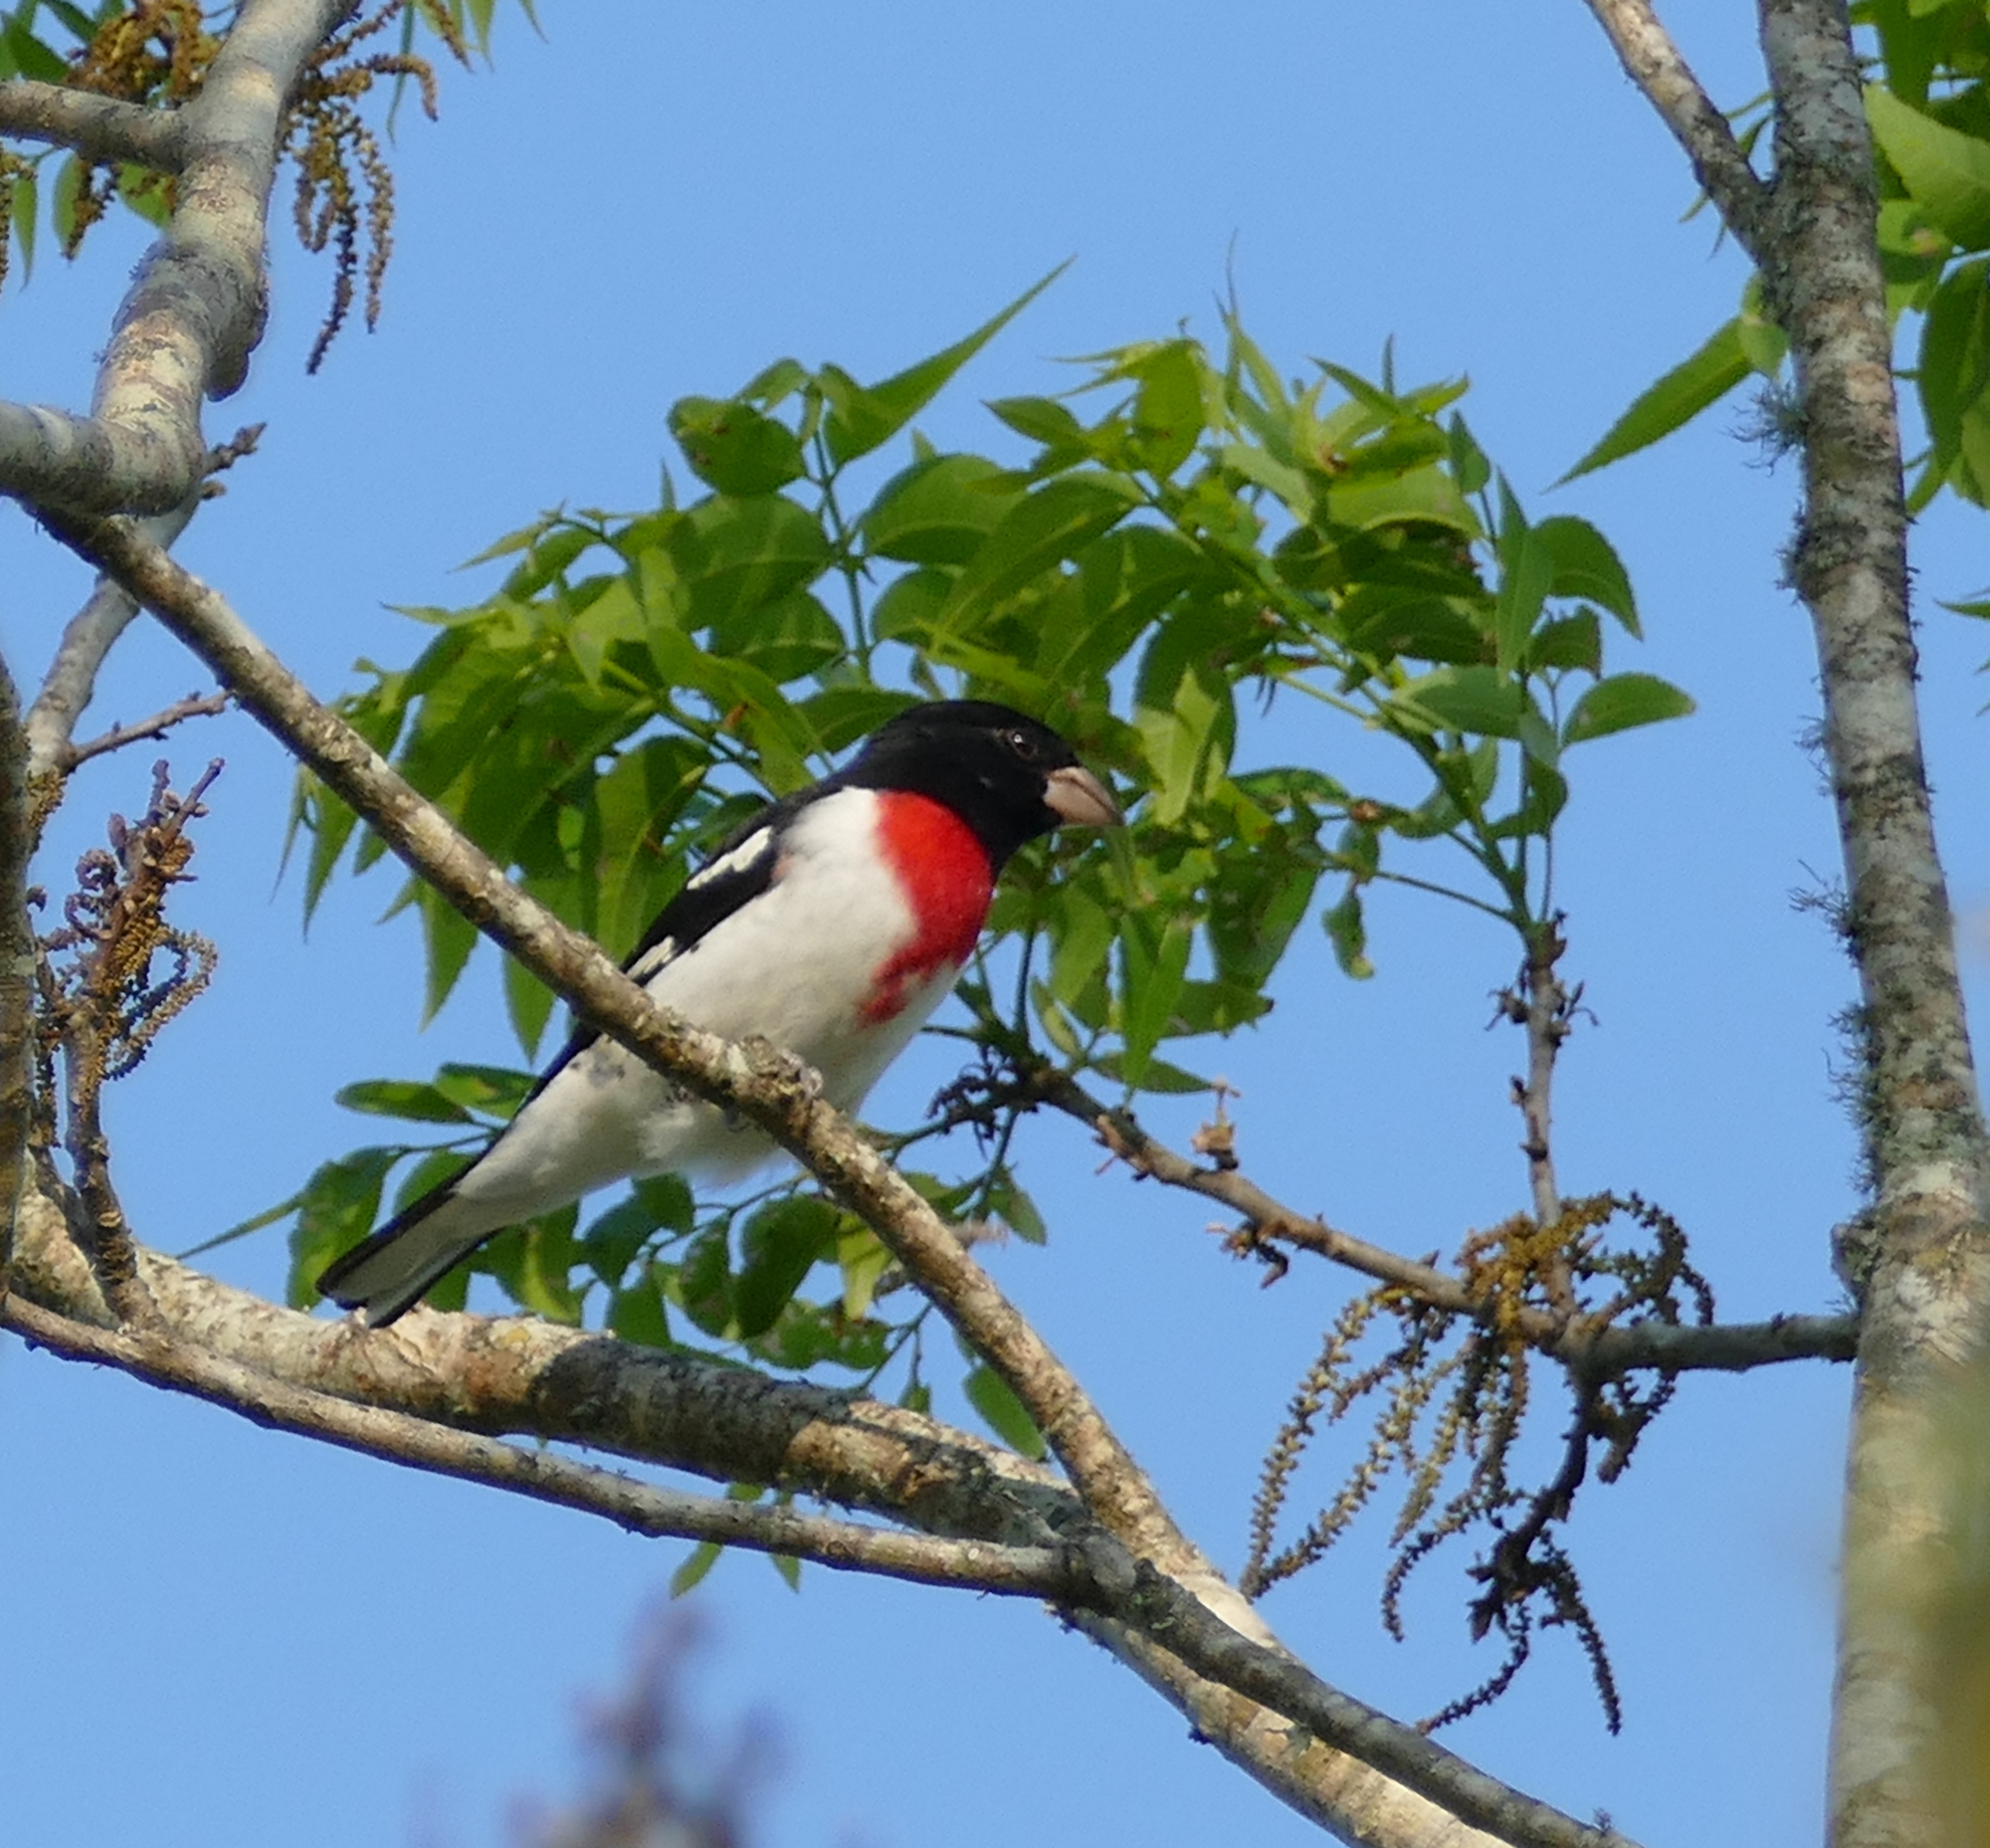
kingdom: Animalia
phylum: Chordata
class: Aves
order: Passeriformes
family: Cardinalidae
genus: Pheucticus
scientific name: Pheucticus ludovicianus
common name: Rose-breasted grosbeak
